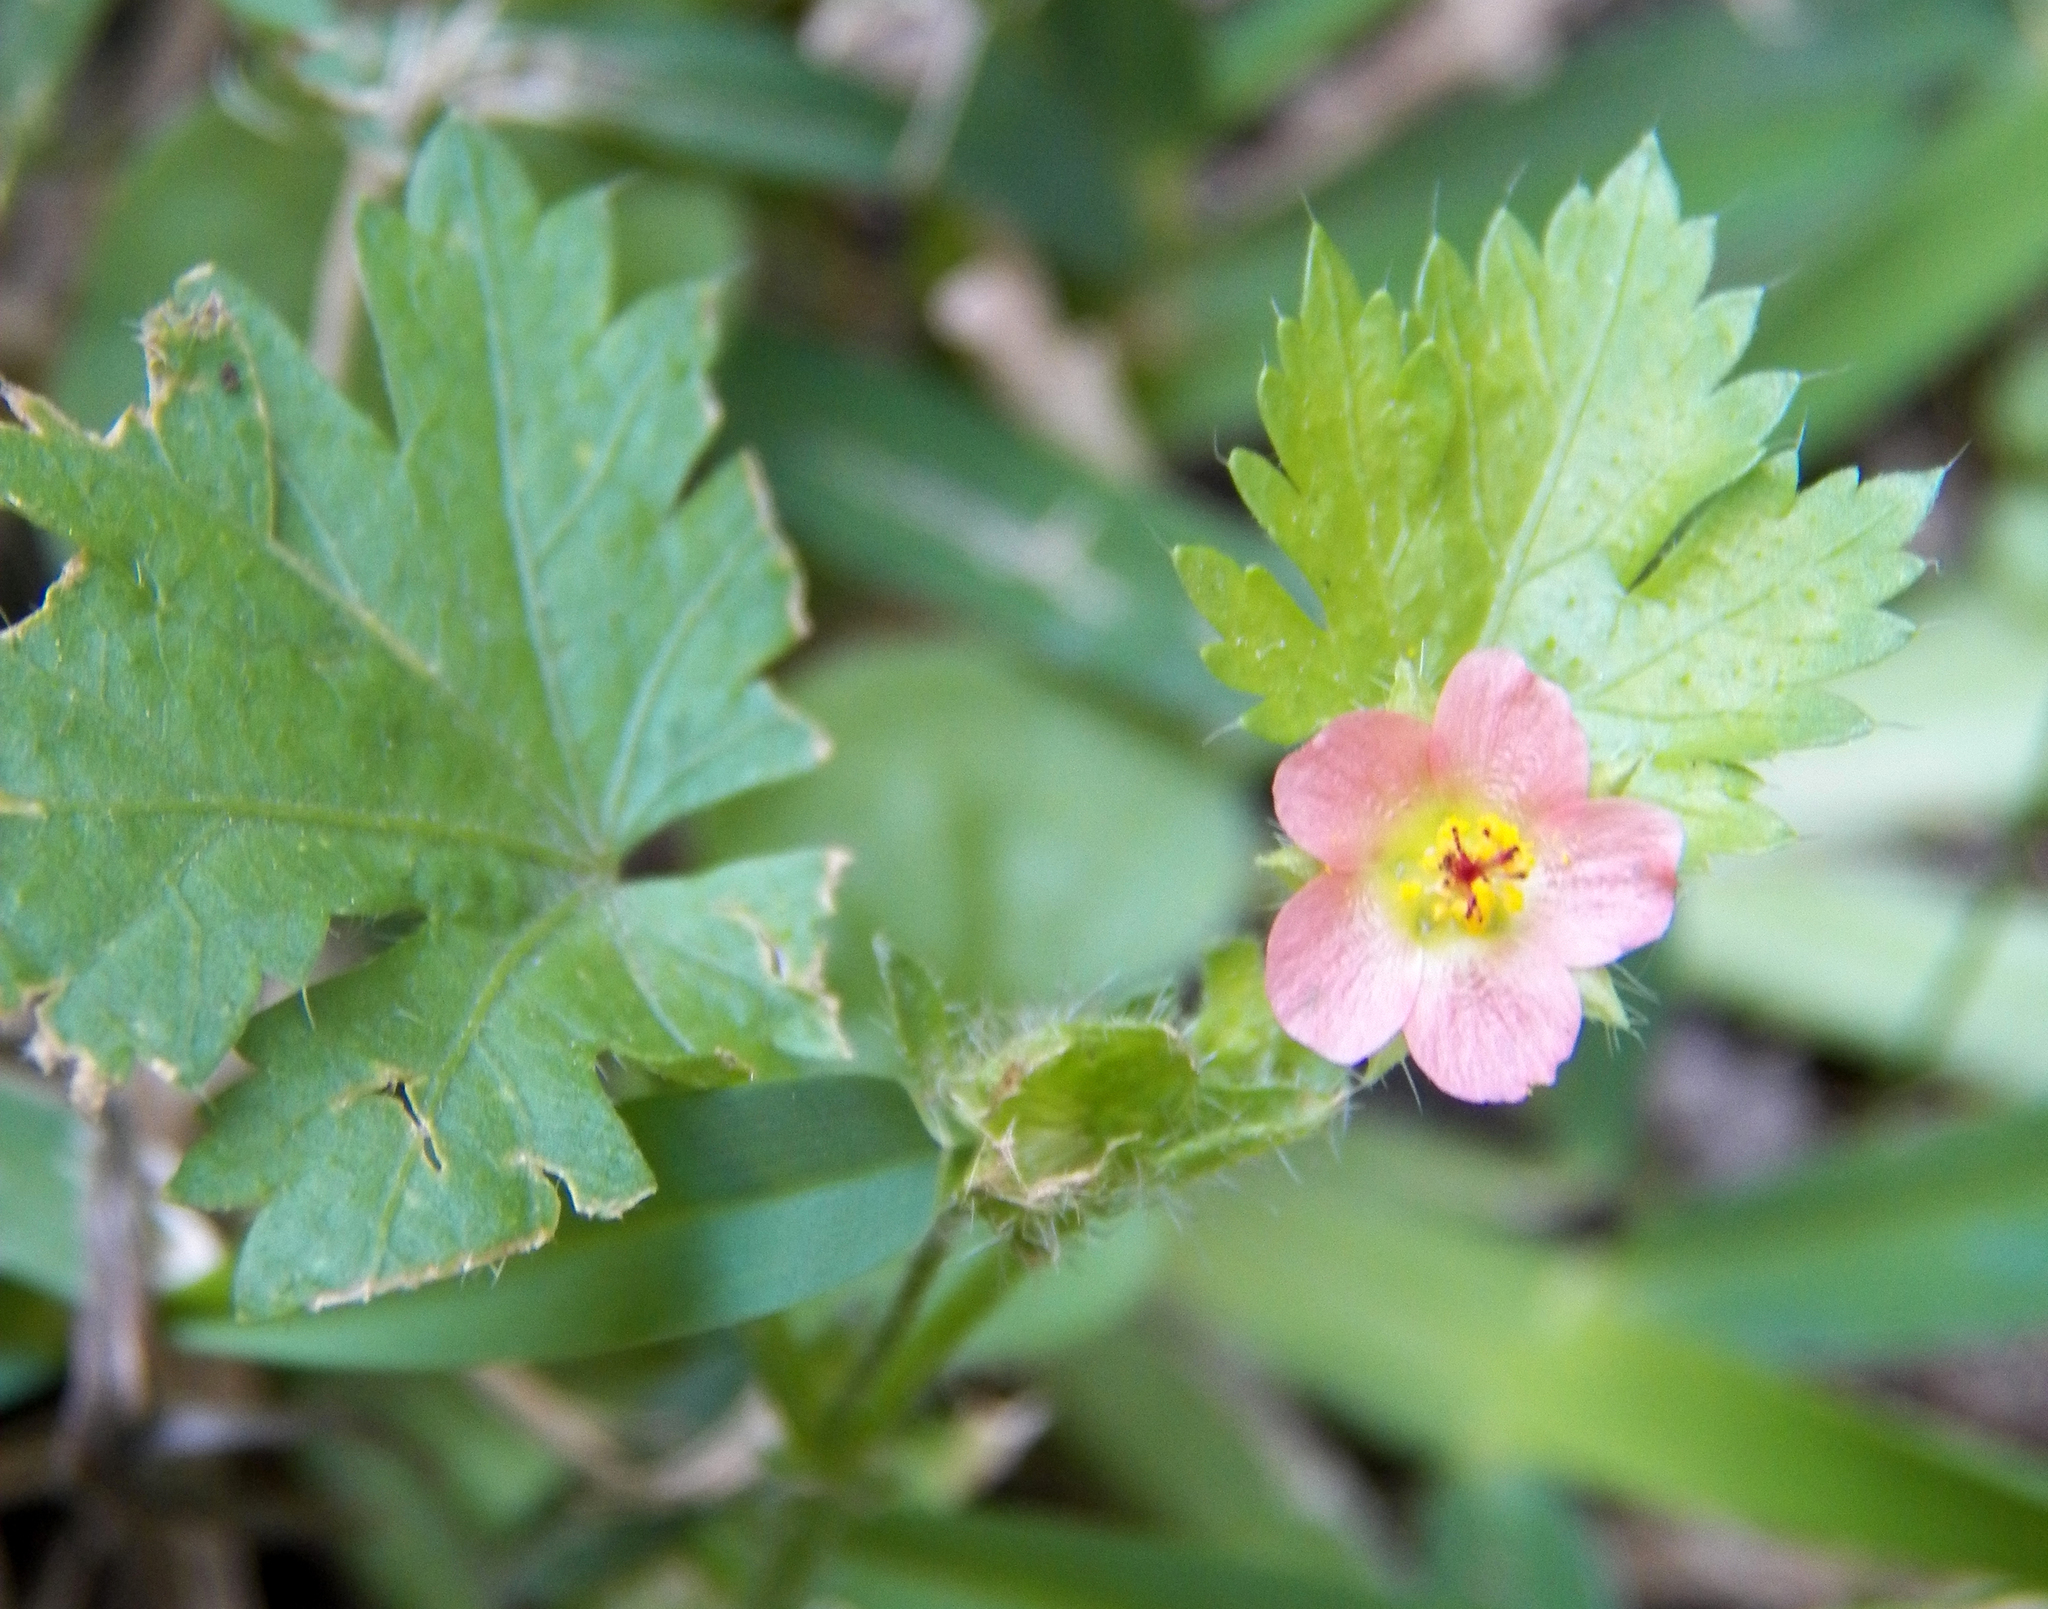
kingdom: Plantae
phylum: Tracheophyta
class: Magnoliopsida
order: Malvales
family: Malvaceae
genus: Modiola
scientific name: Modiola caroliniana
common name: Carolina bristlemallow
